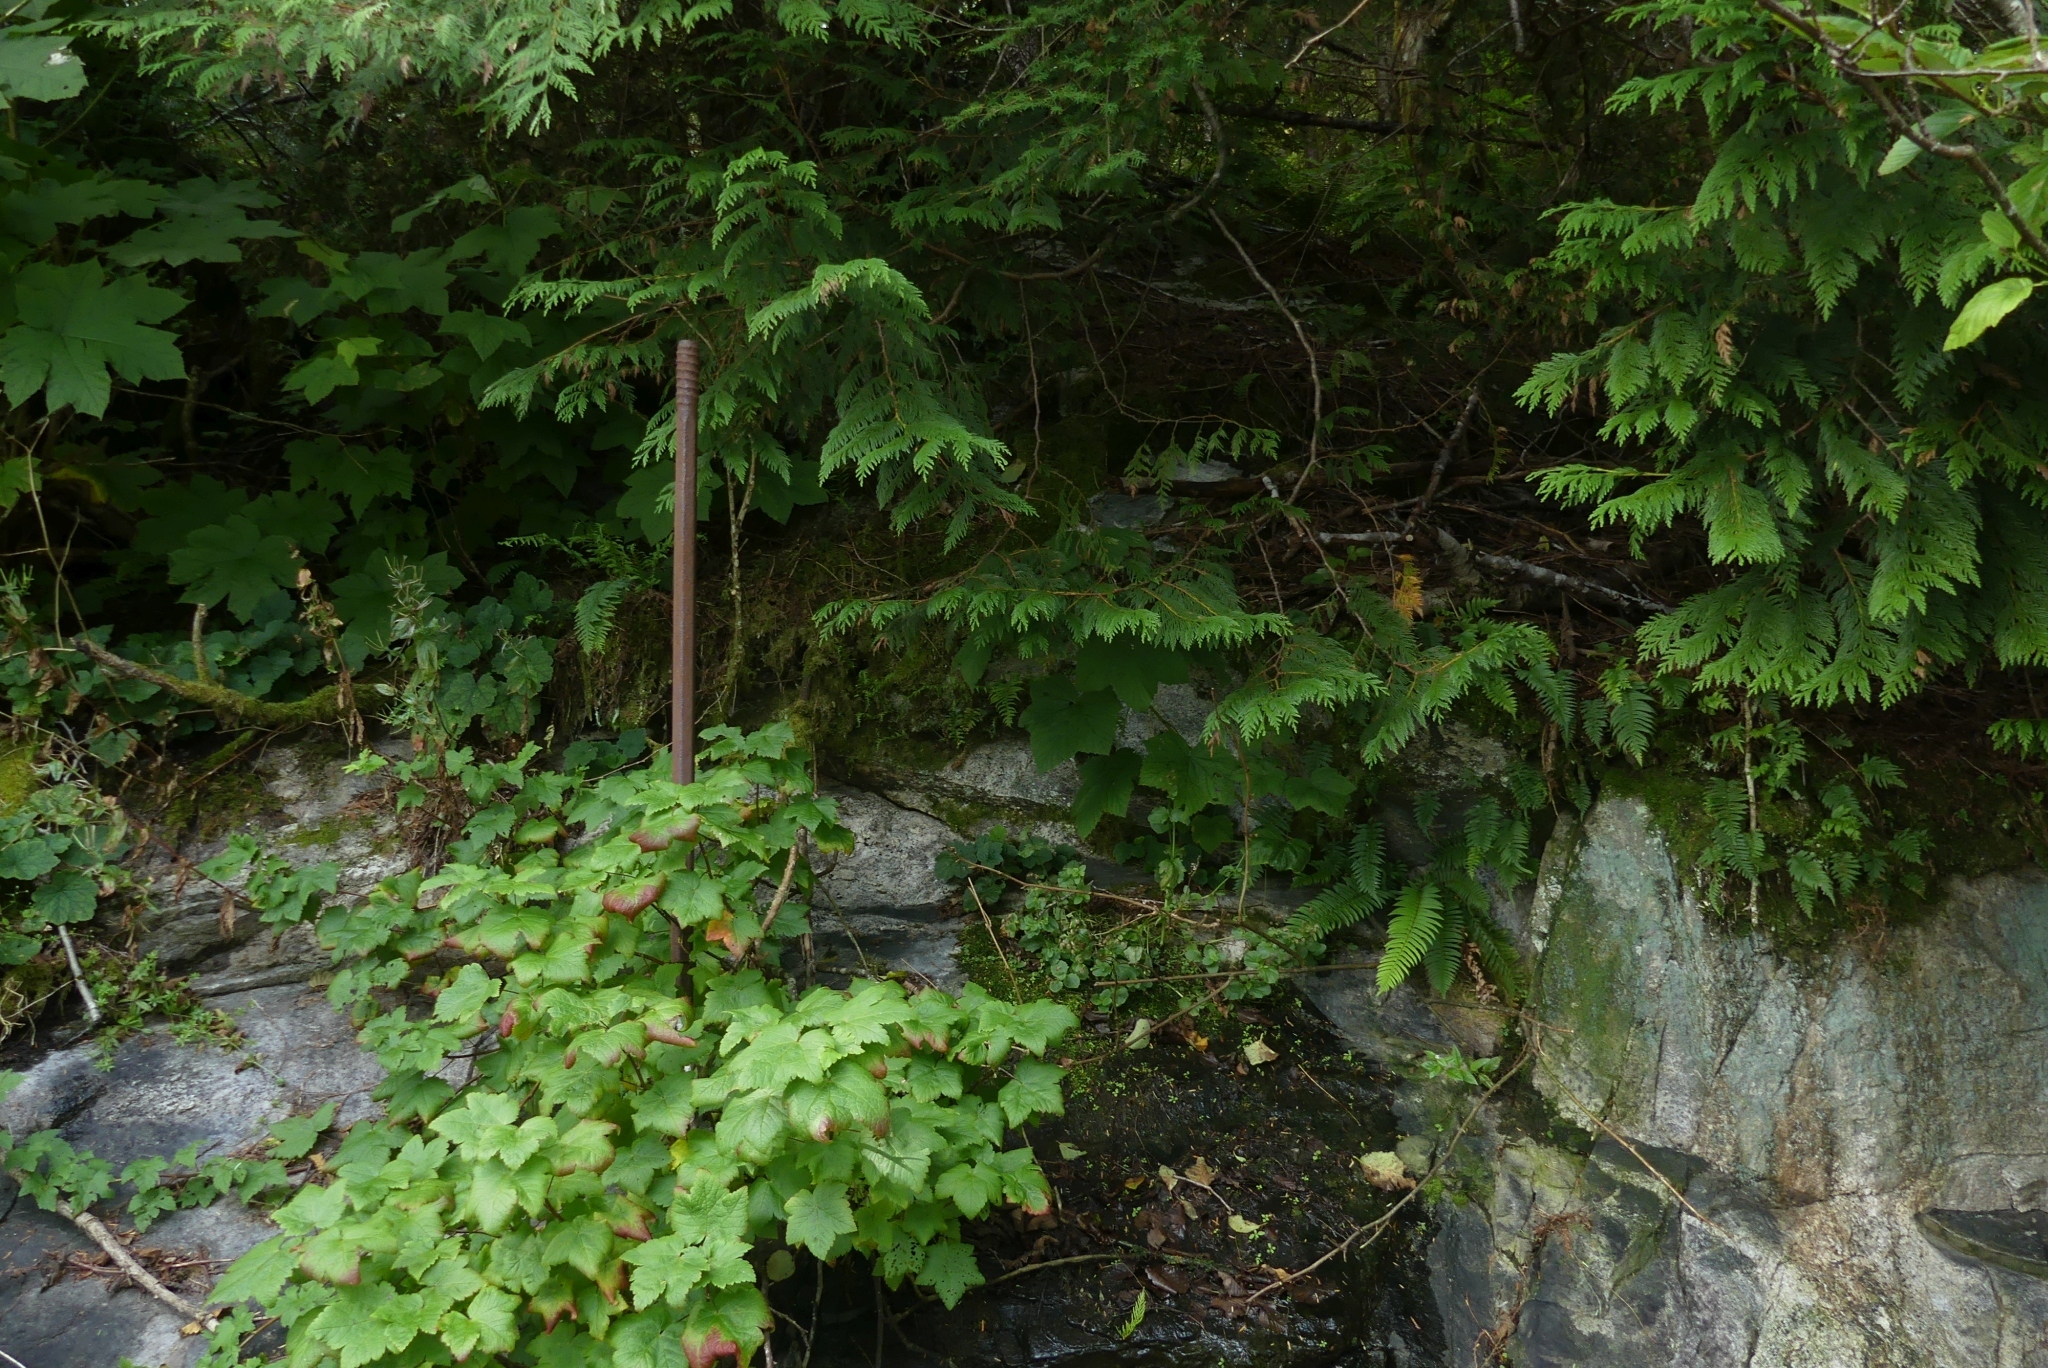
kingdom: Plantae
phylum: Tracheophyta
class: Pinopsida
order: Pinales
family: Cupressaceae
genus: Thuja
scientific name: Thuja plicata
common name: Western red-cedar
